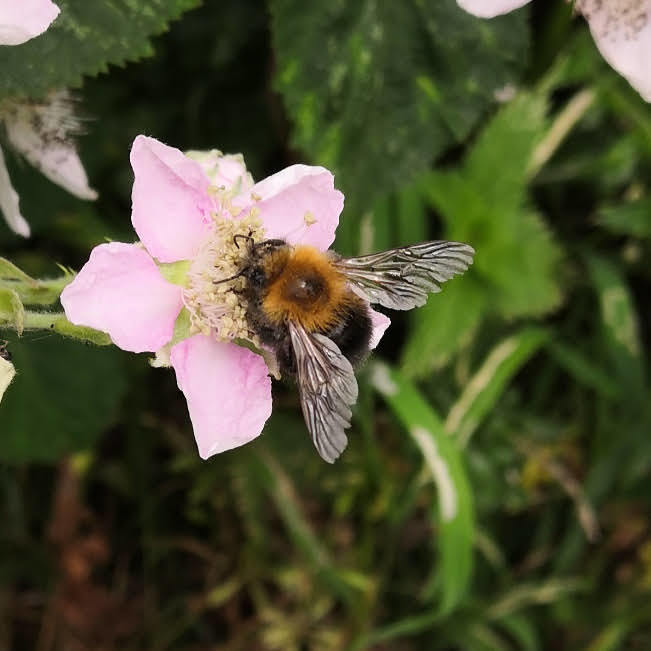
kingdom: Animalia
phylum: Arthropoda
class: Insecta
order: Hymenoptera
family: Apidae
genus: Bombus
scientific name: Bombus hypnorum
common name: New garden bumblebee
